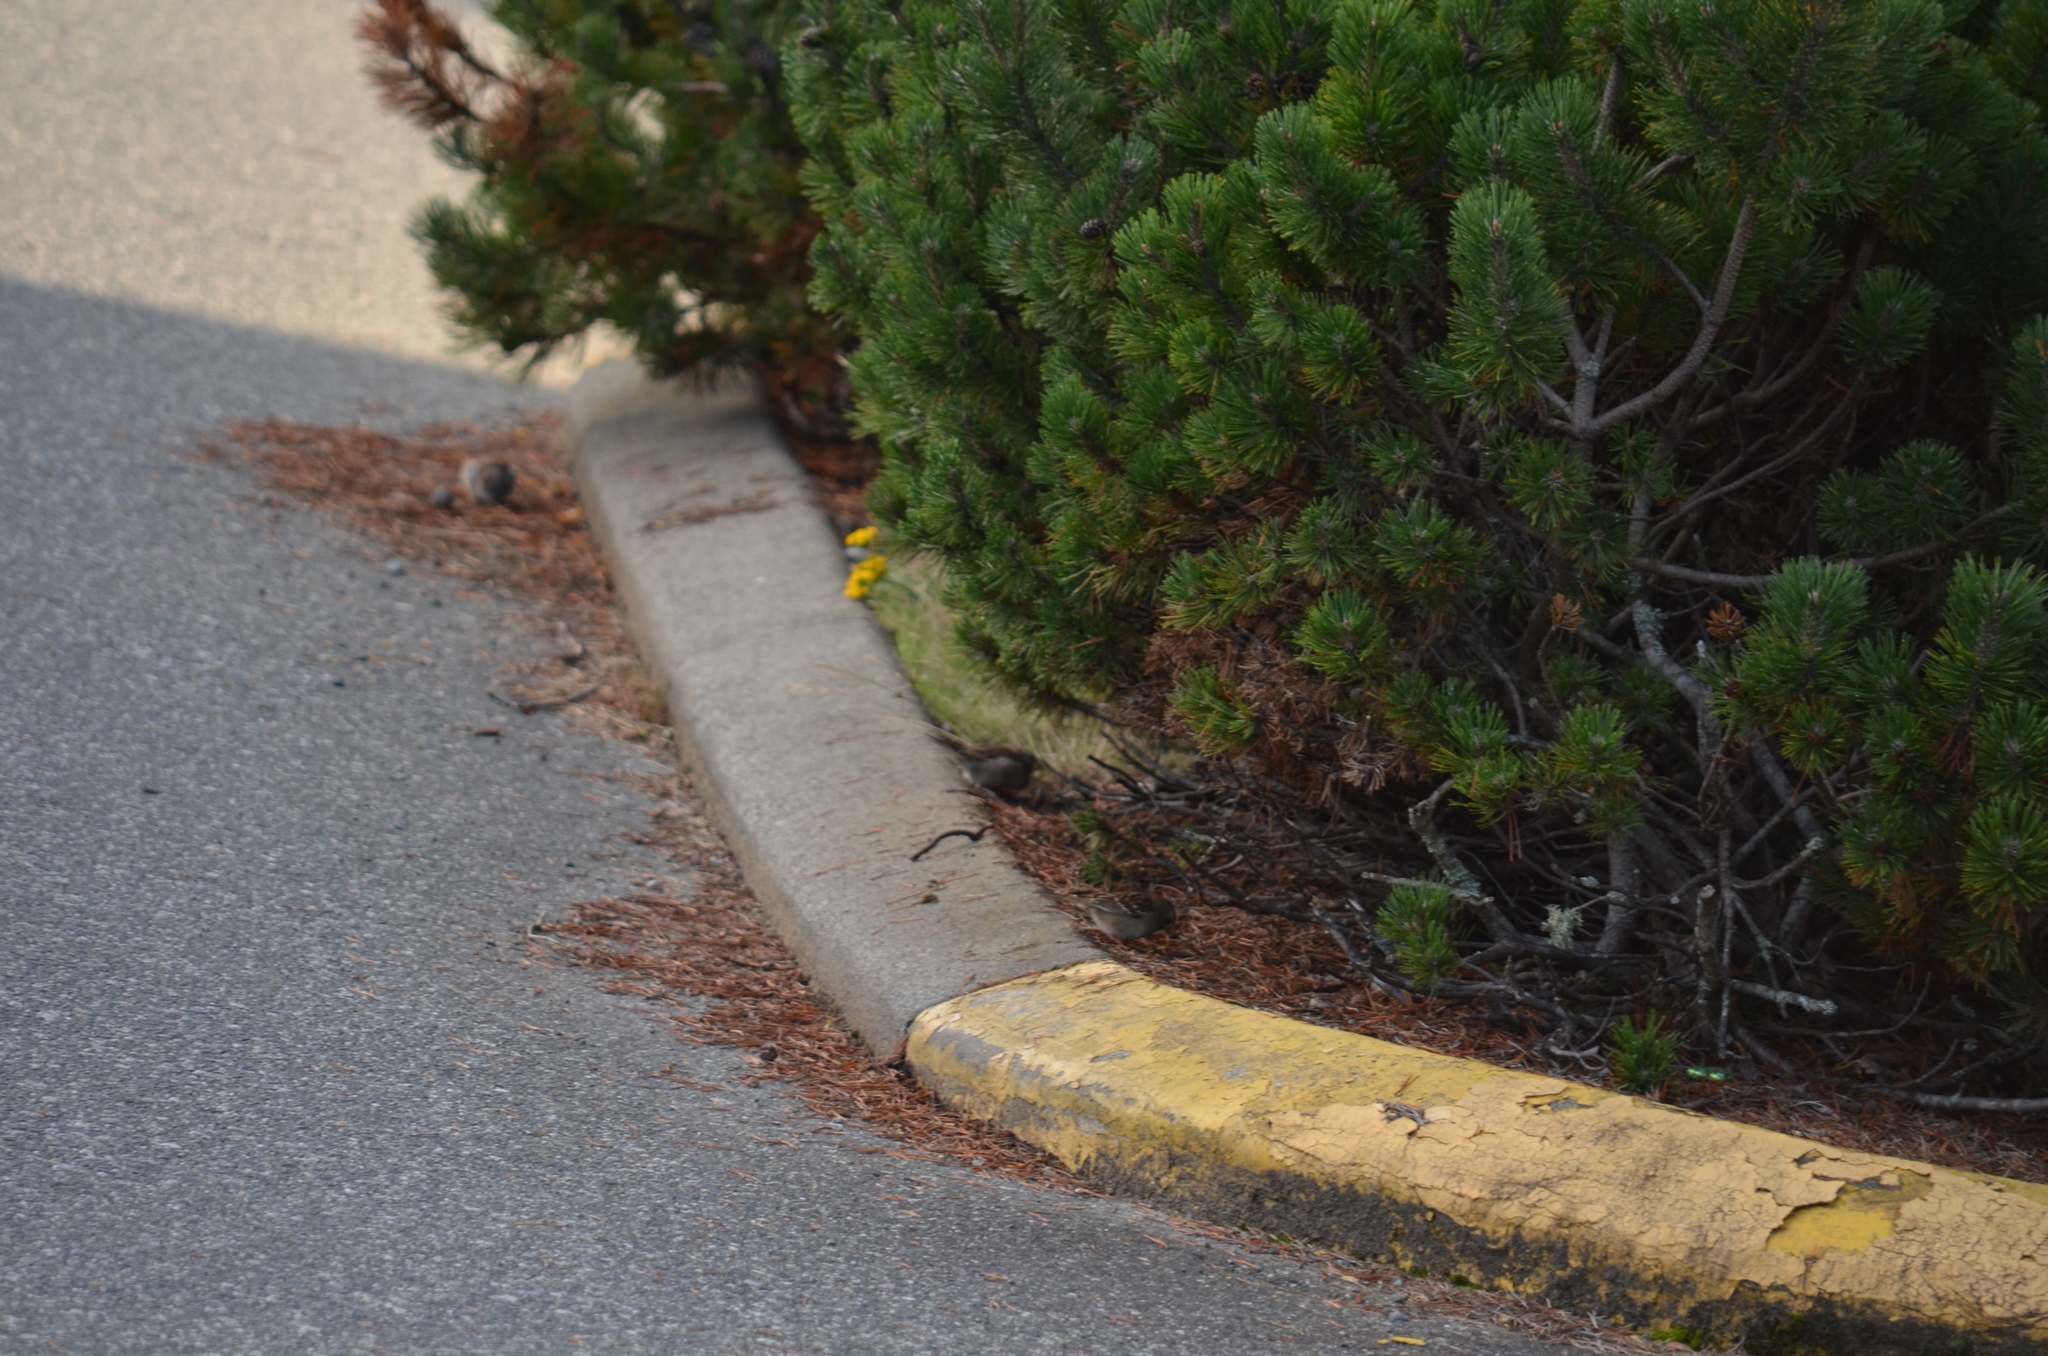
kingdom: Animalia
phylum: Chordata
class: Aves
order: Passeriformes
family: Passeridae
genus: Passer
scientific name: Passer domesticus
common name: House sparrow
